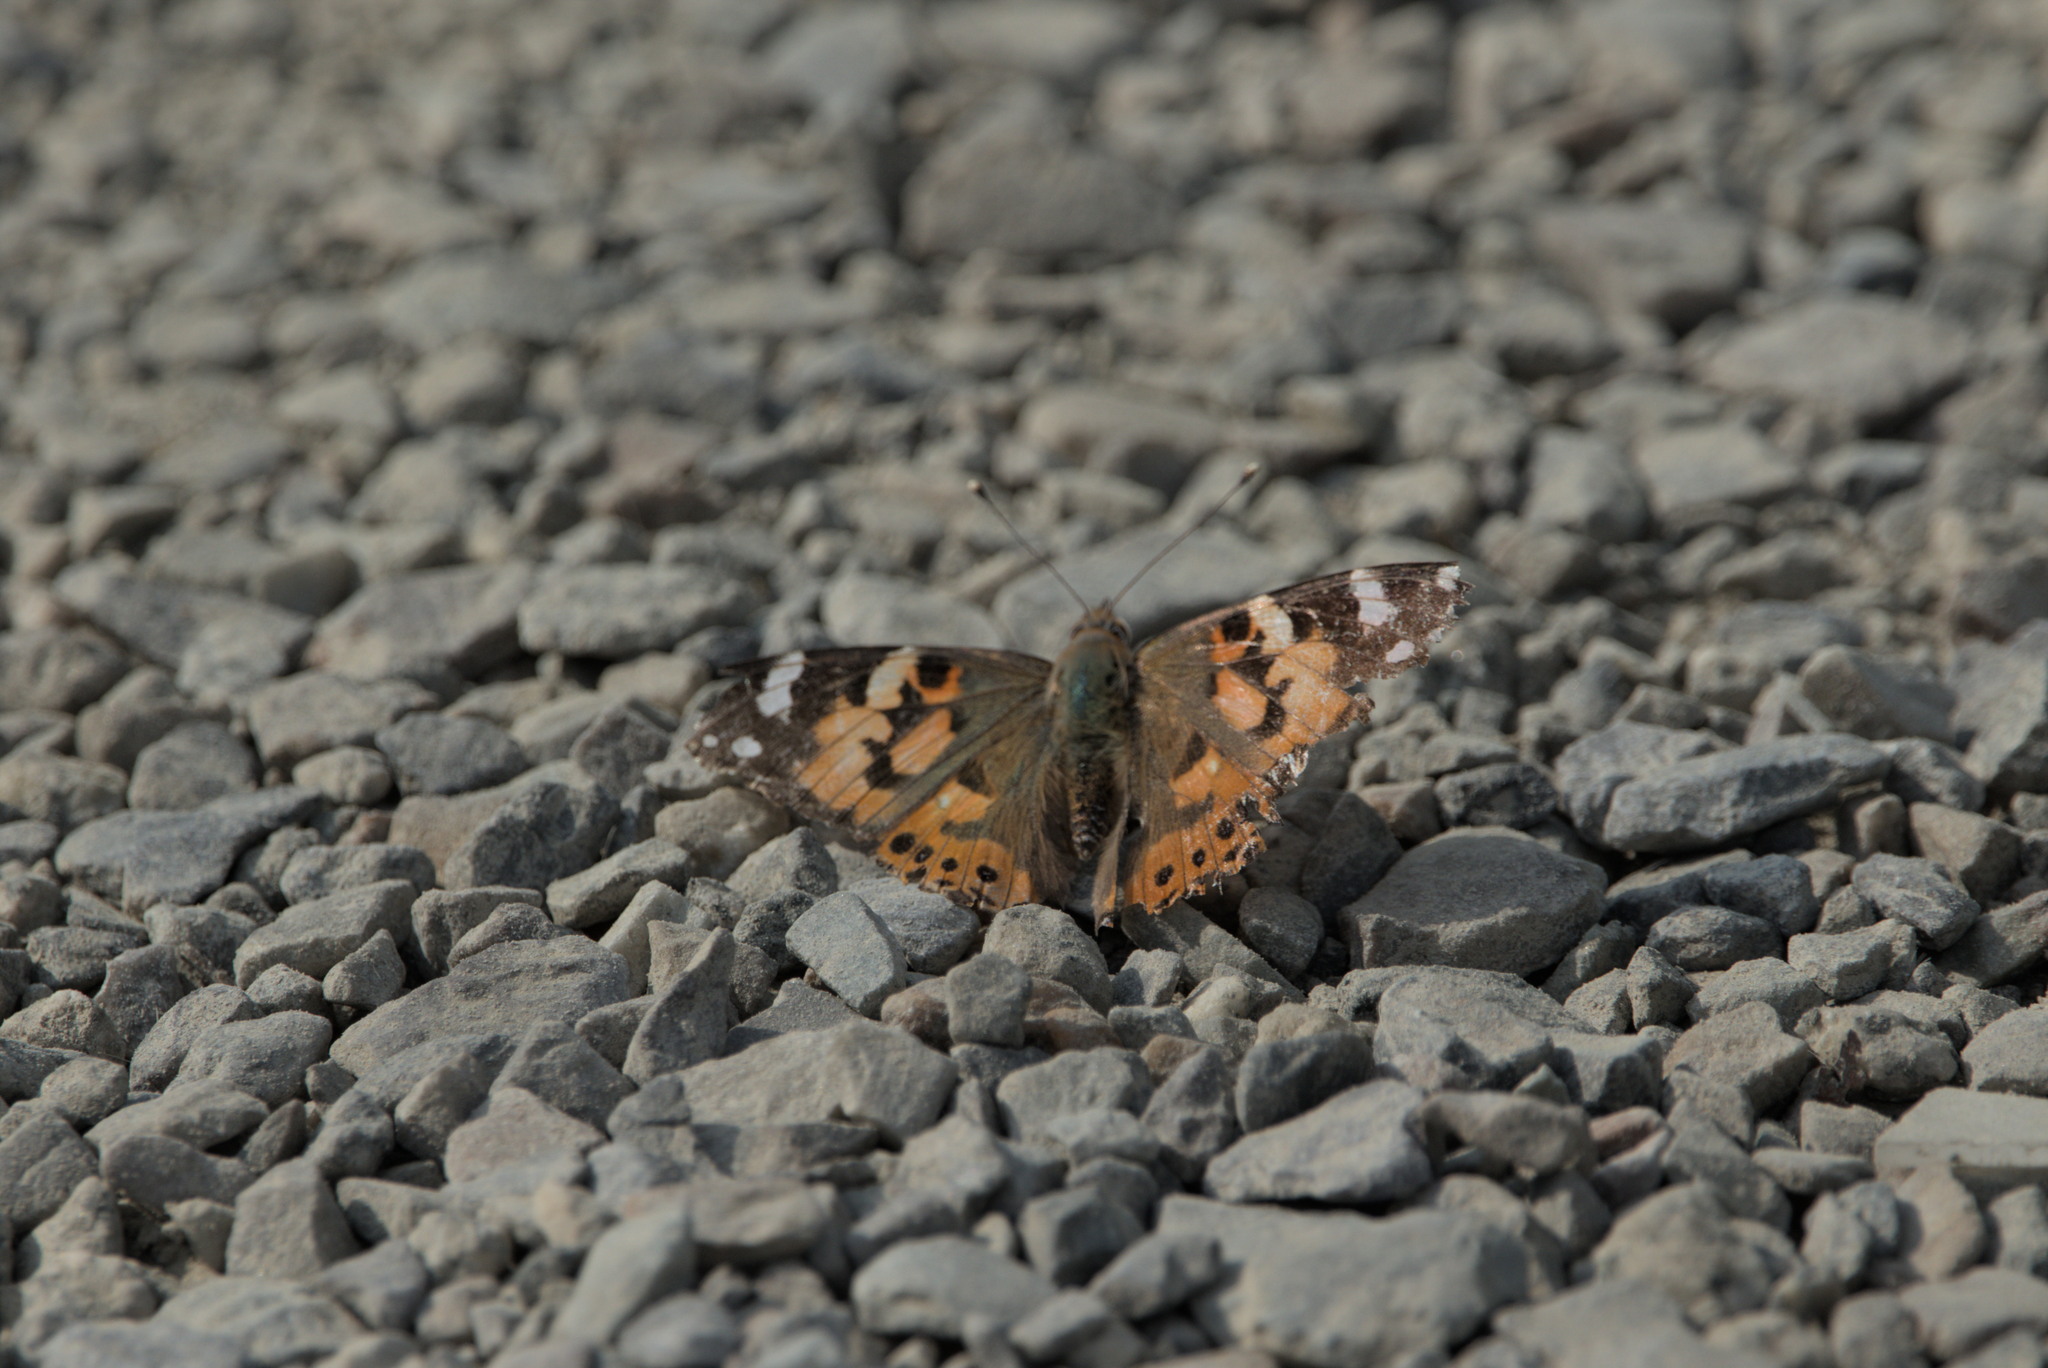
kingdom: Animalia
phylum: Arthropoda
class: Insecta
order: Lepidoptera
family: Nymphalidae
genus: Vanessa
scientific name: Vanessa cardui
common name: Painted lady
